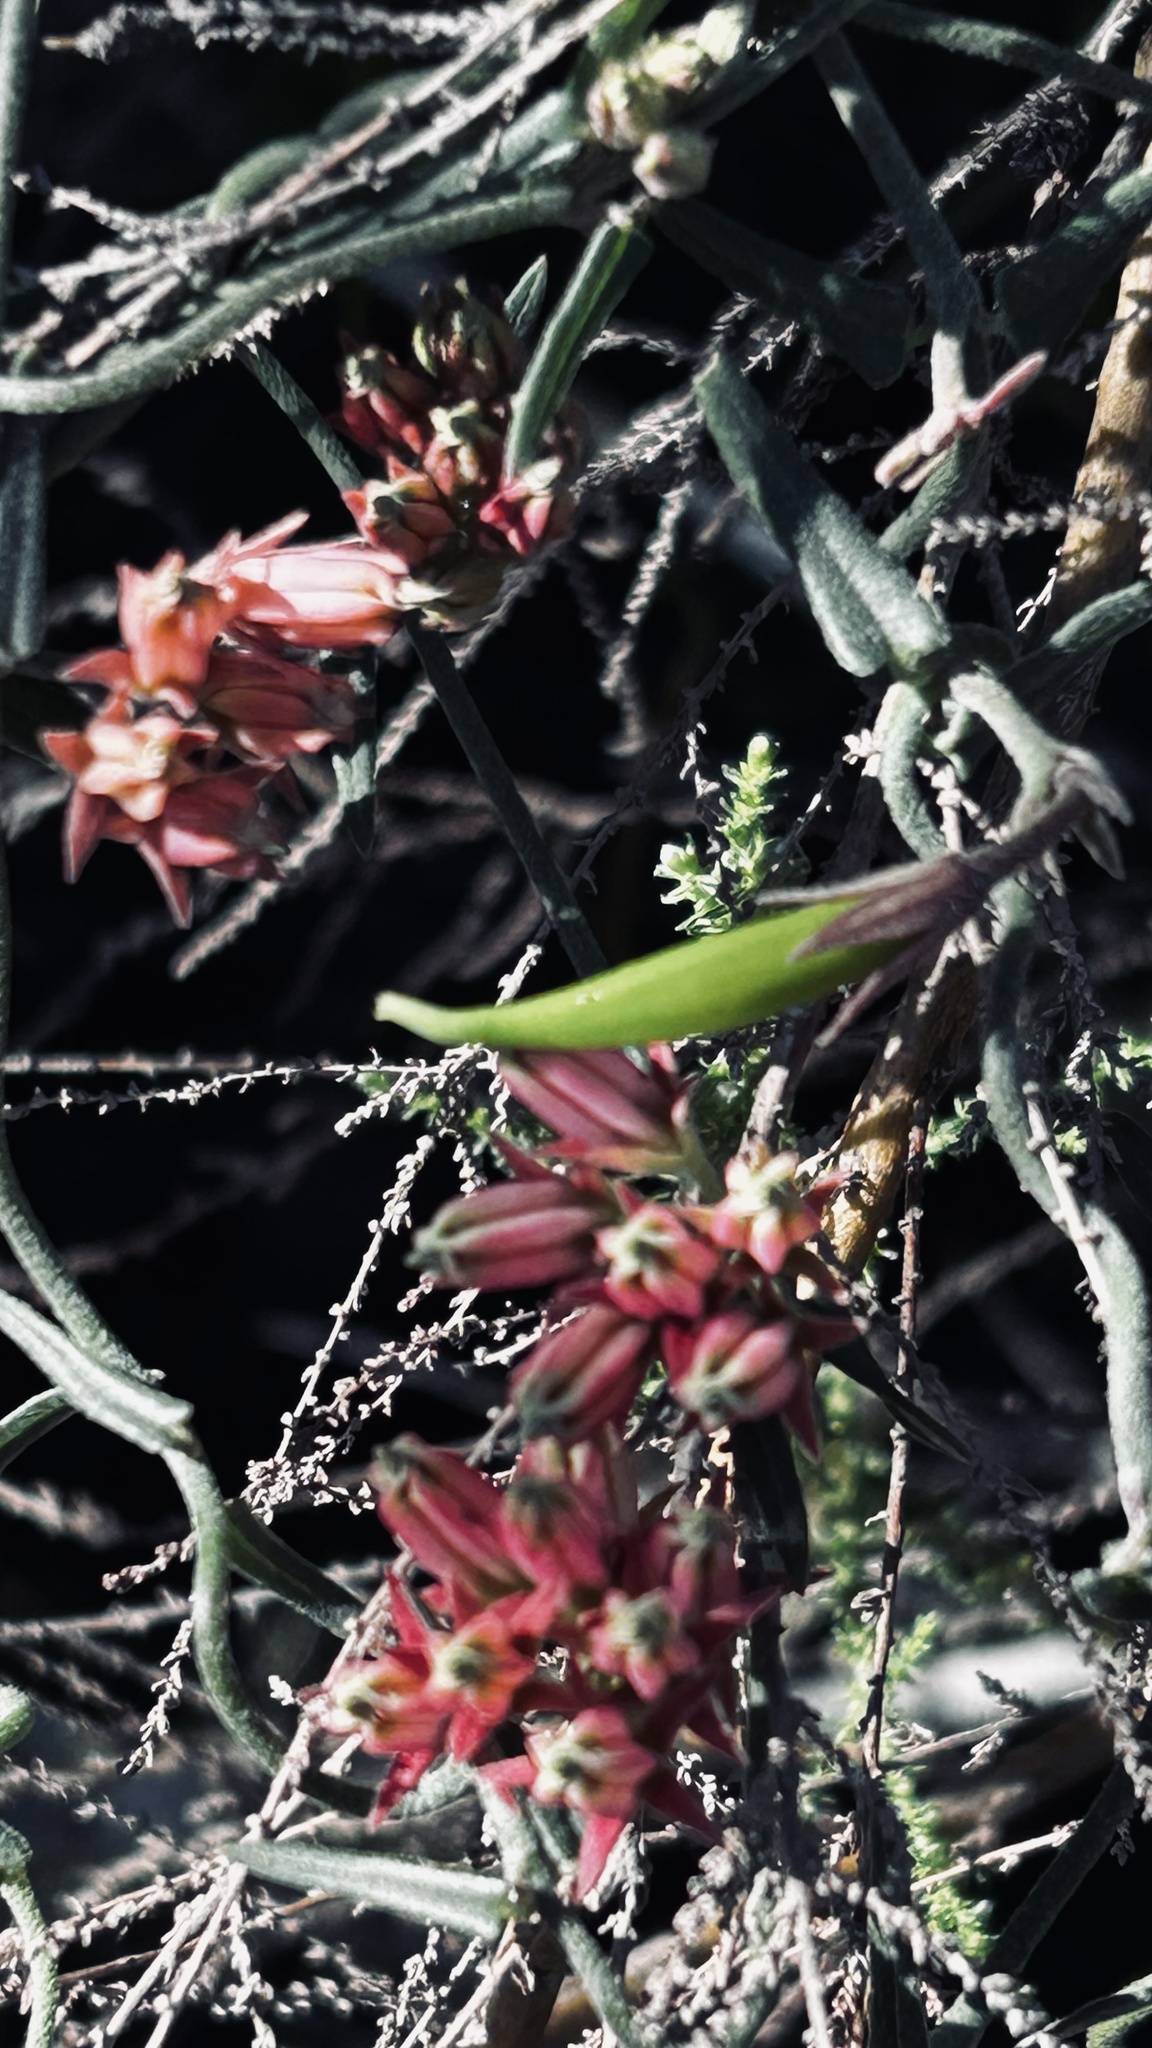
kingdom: Plantae
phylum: Tracheophyta
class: Magnoliopsida
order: Gentianales
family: Apocynaceae
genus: Microloma
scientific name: Microloma sagittatum
